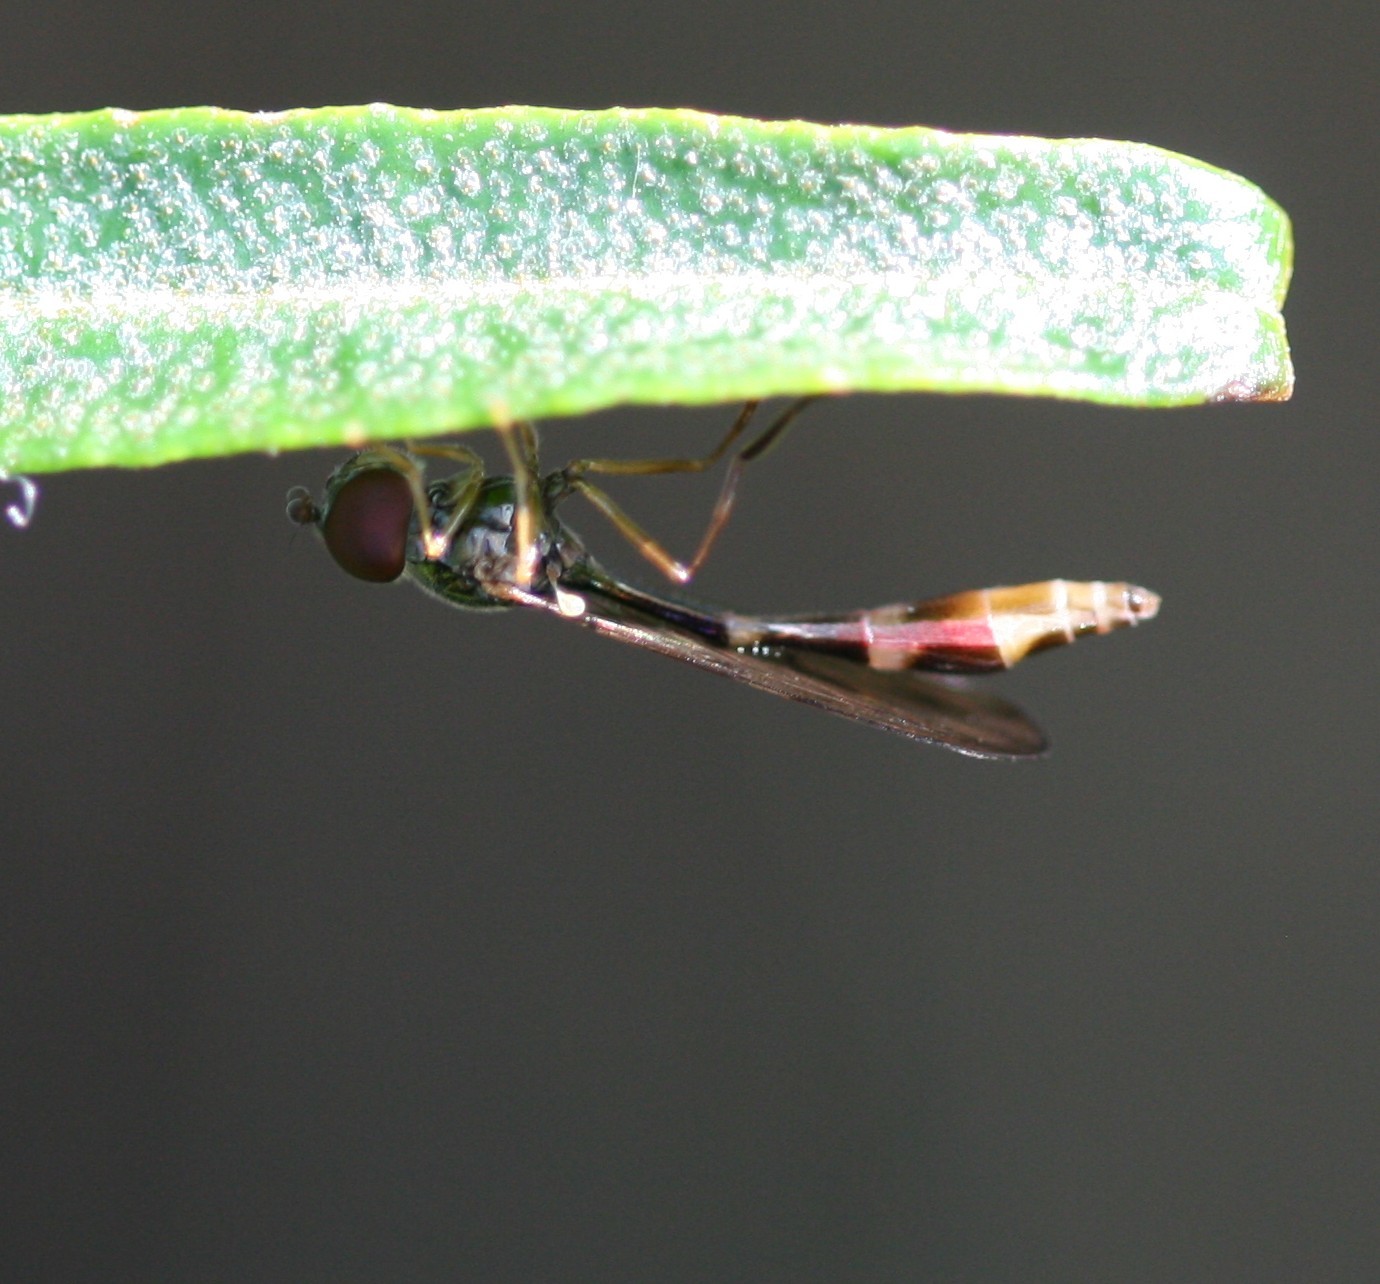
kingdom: Animalia
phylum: Arthropoda
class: Insecta
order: Diptera
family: Syrphidae
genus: Baccha
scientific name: Baccha elongata
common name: Common dainty
